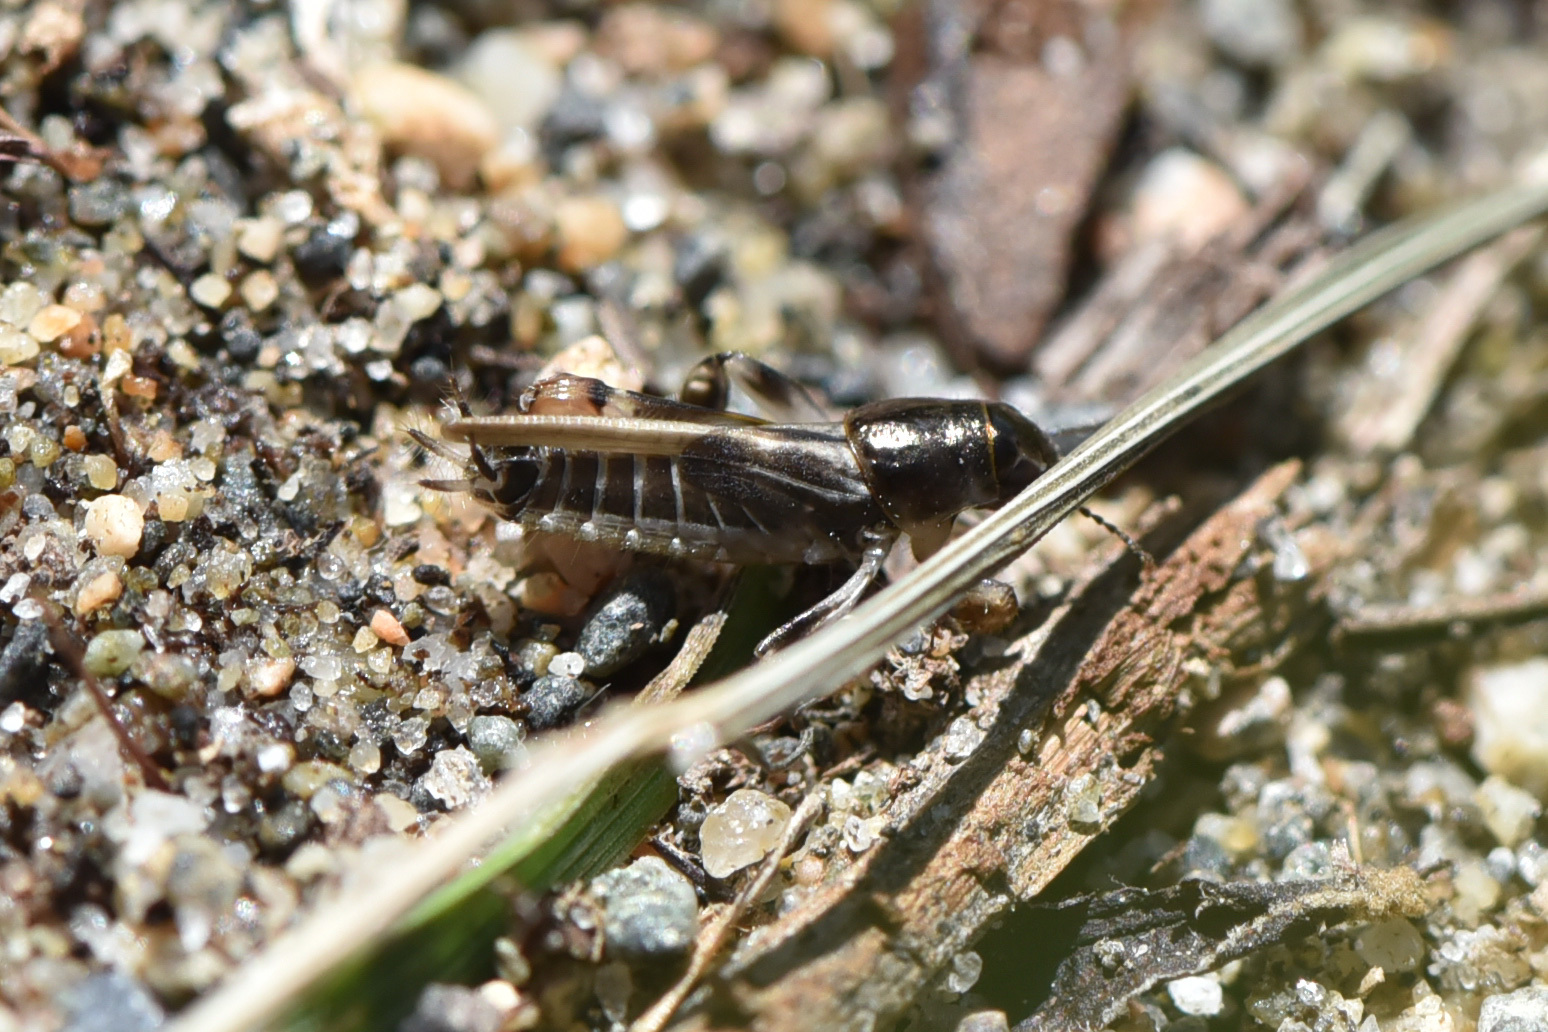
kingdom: Animalia
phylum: Arthropoda
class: Insecta
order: Orthoptera
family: Tridactylidae
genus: Neotridactylus
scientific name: Neotridactylus apicialis
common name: Larger pygmy locust
